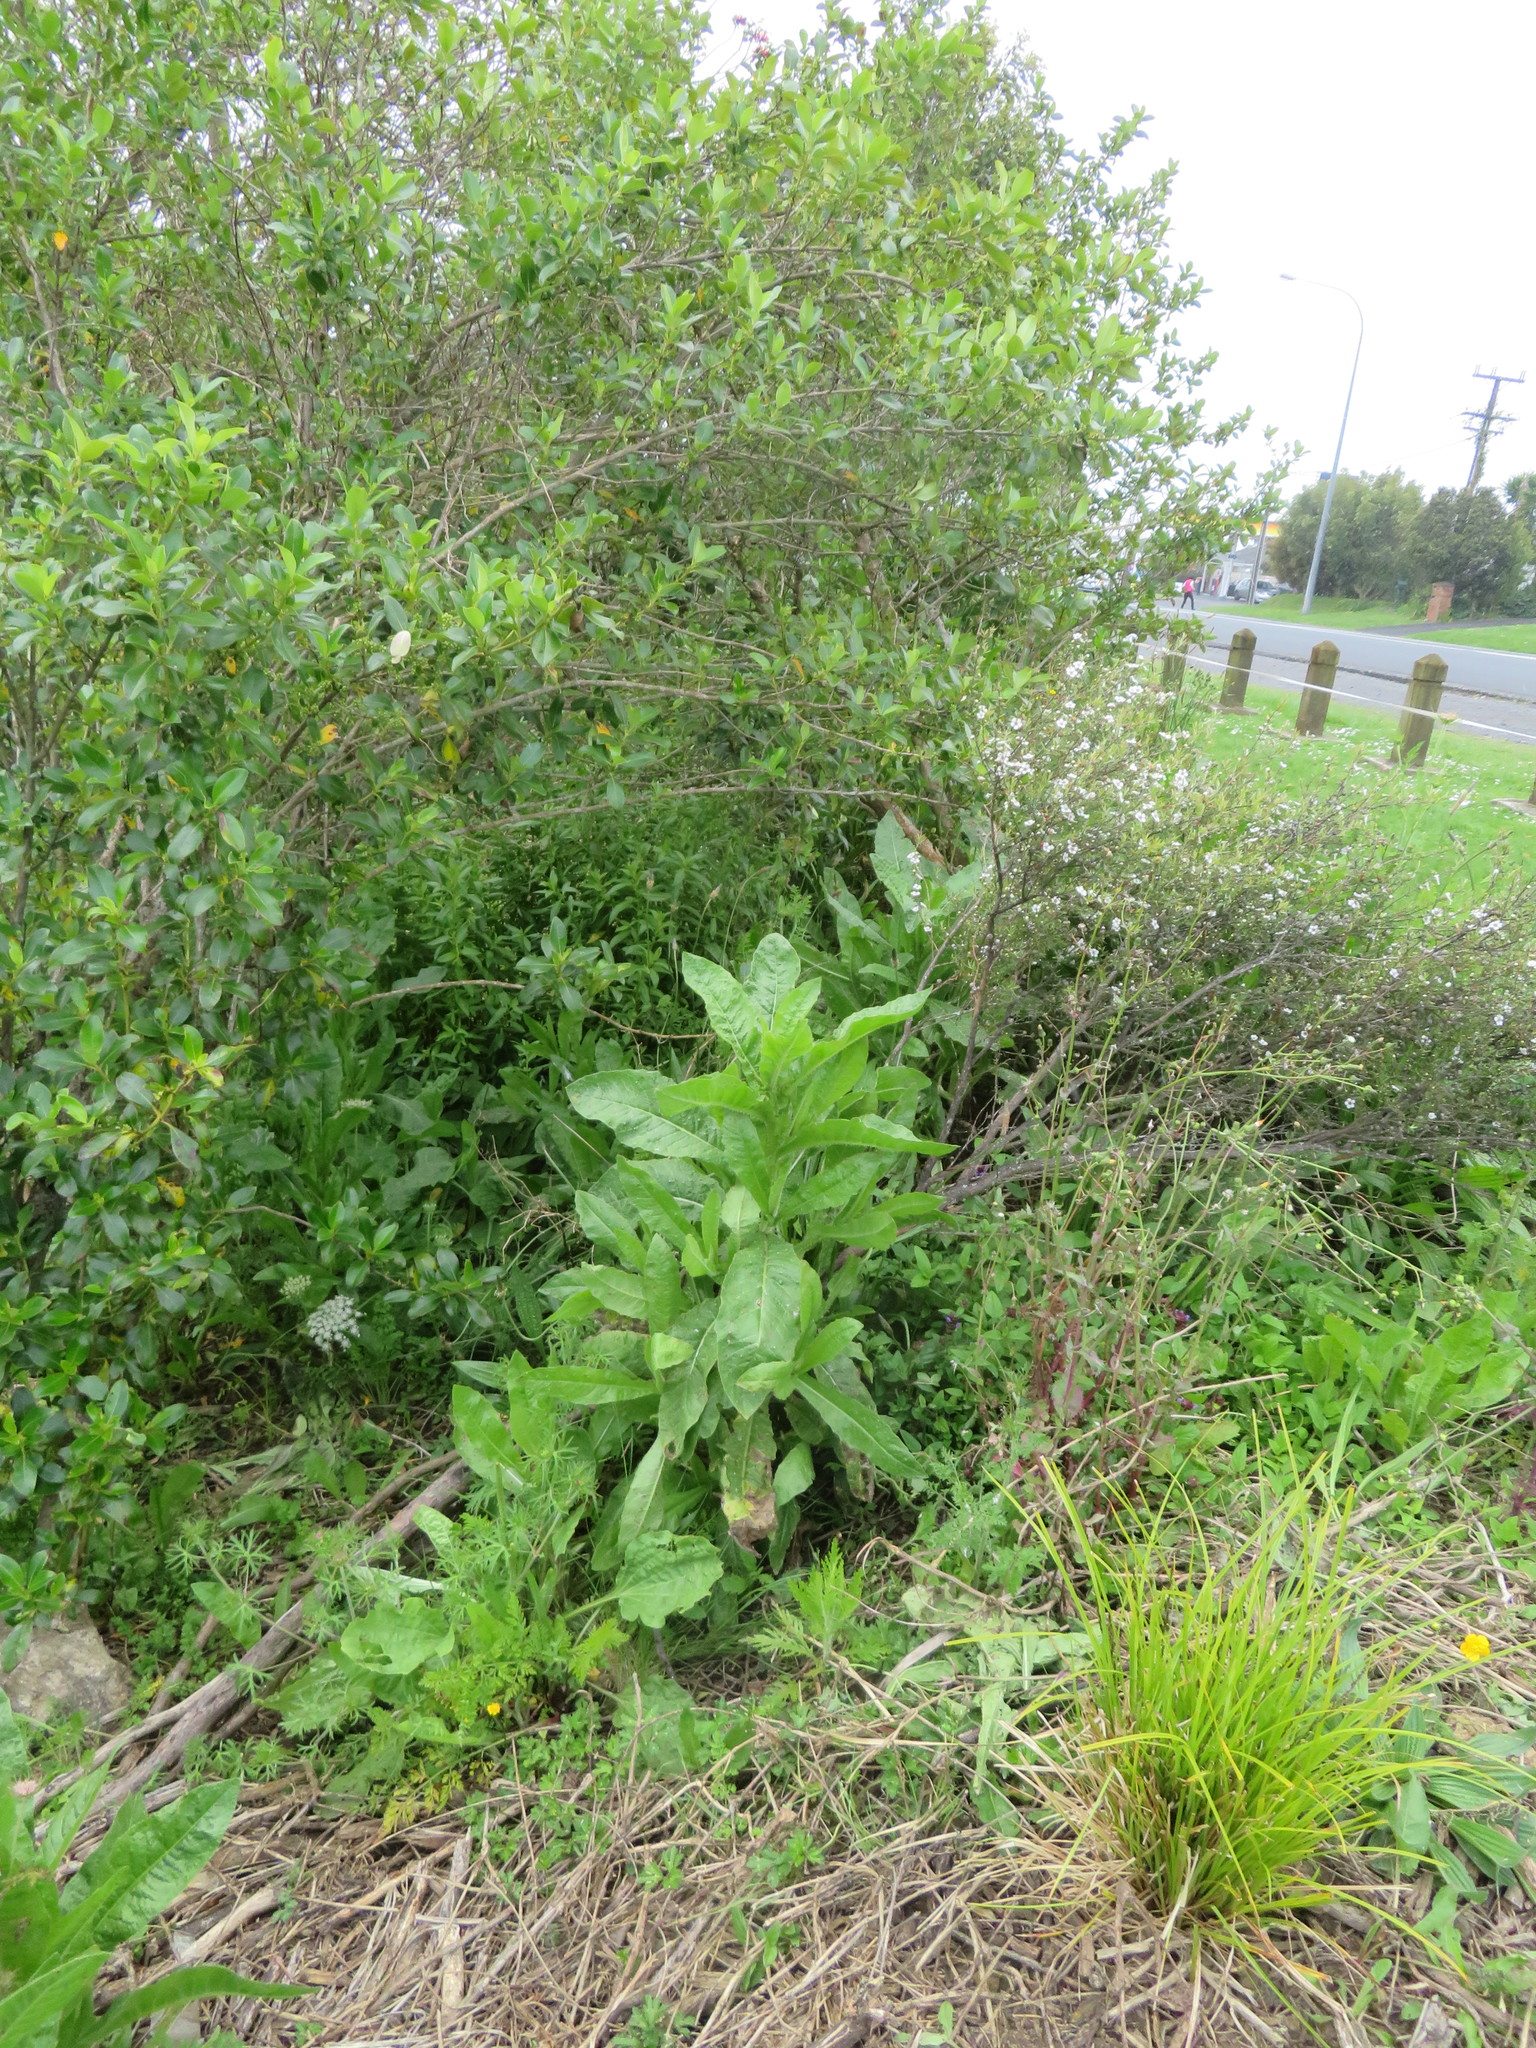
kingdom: Plantae
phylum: Tracheophyta
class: Magnoliopsida
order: Asterales
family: Asteraceae
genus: Helminthotheca
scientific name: Helminthotheca echioides
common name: Ox-tongue
